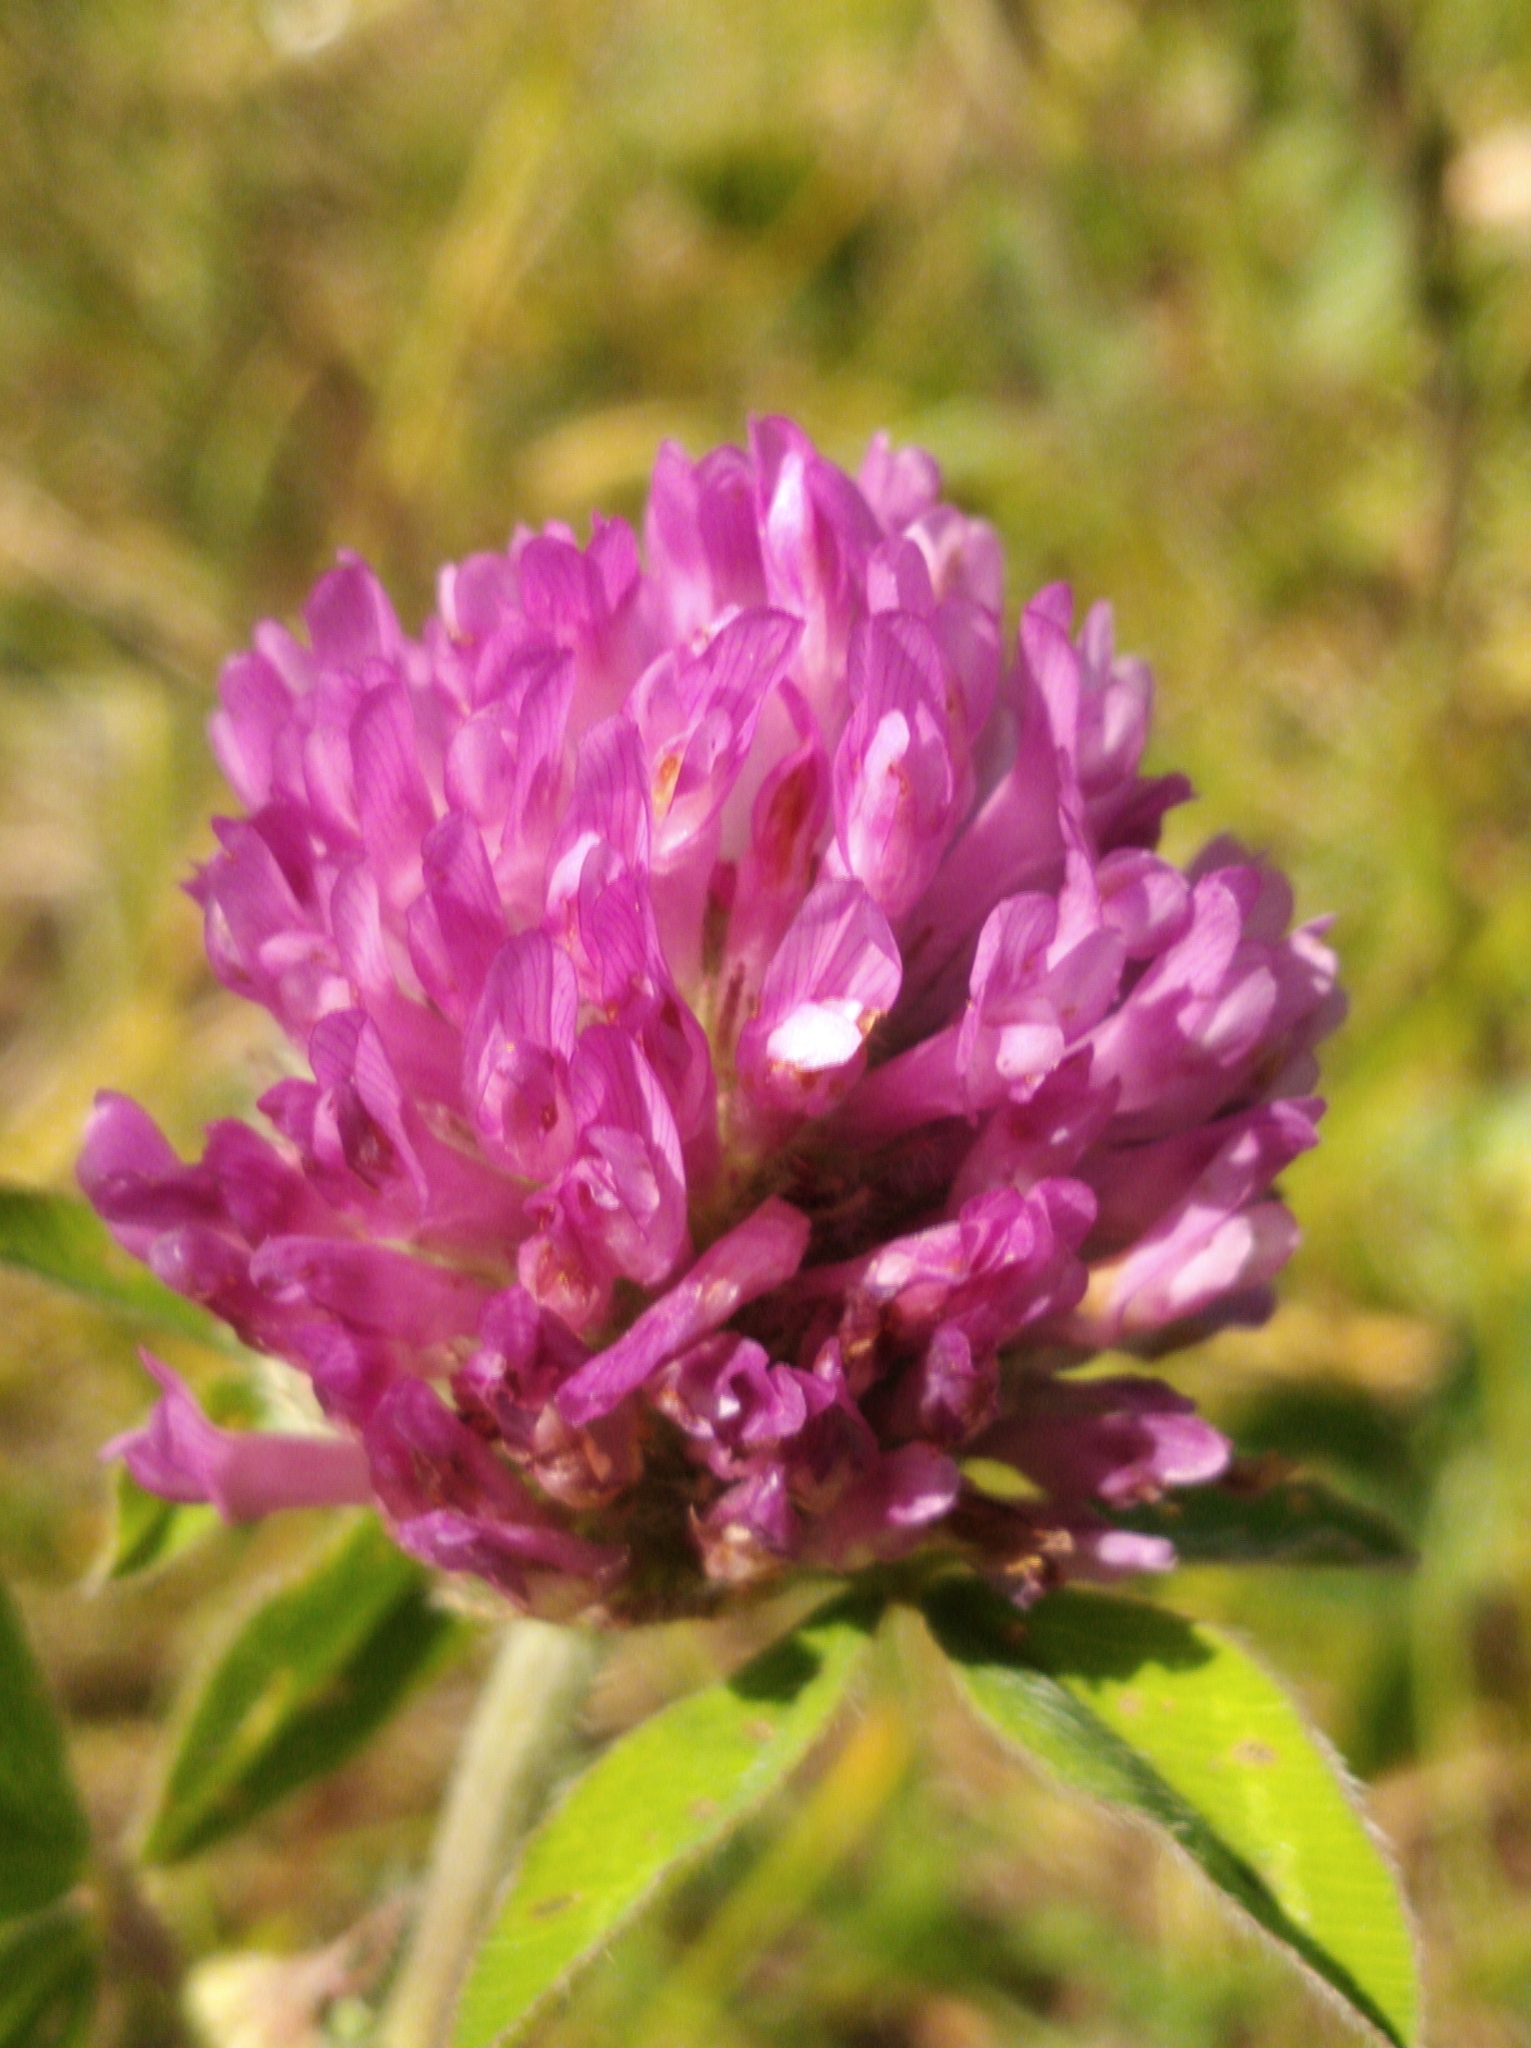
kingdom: Plantae
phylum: Tracheophyta
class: Magnoliopsida
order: Fabales
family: Fabaceae
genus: Trifolium
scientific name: Trifolium medium
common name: Zigzag clover
